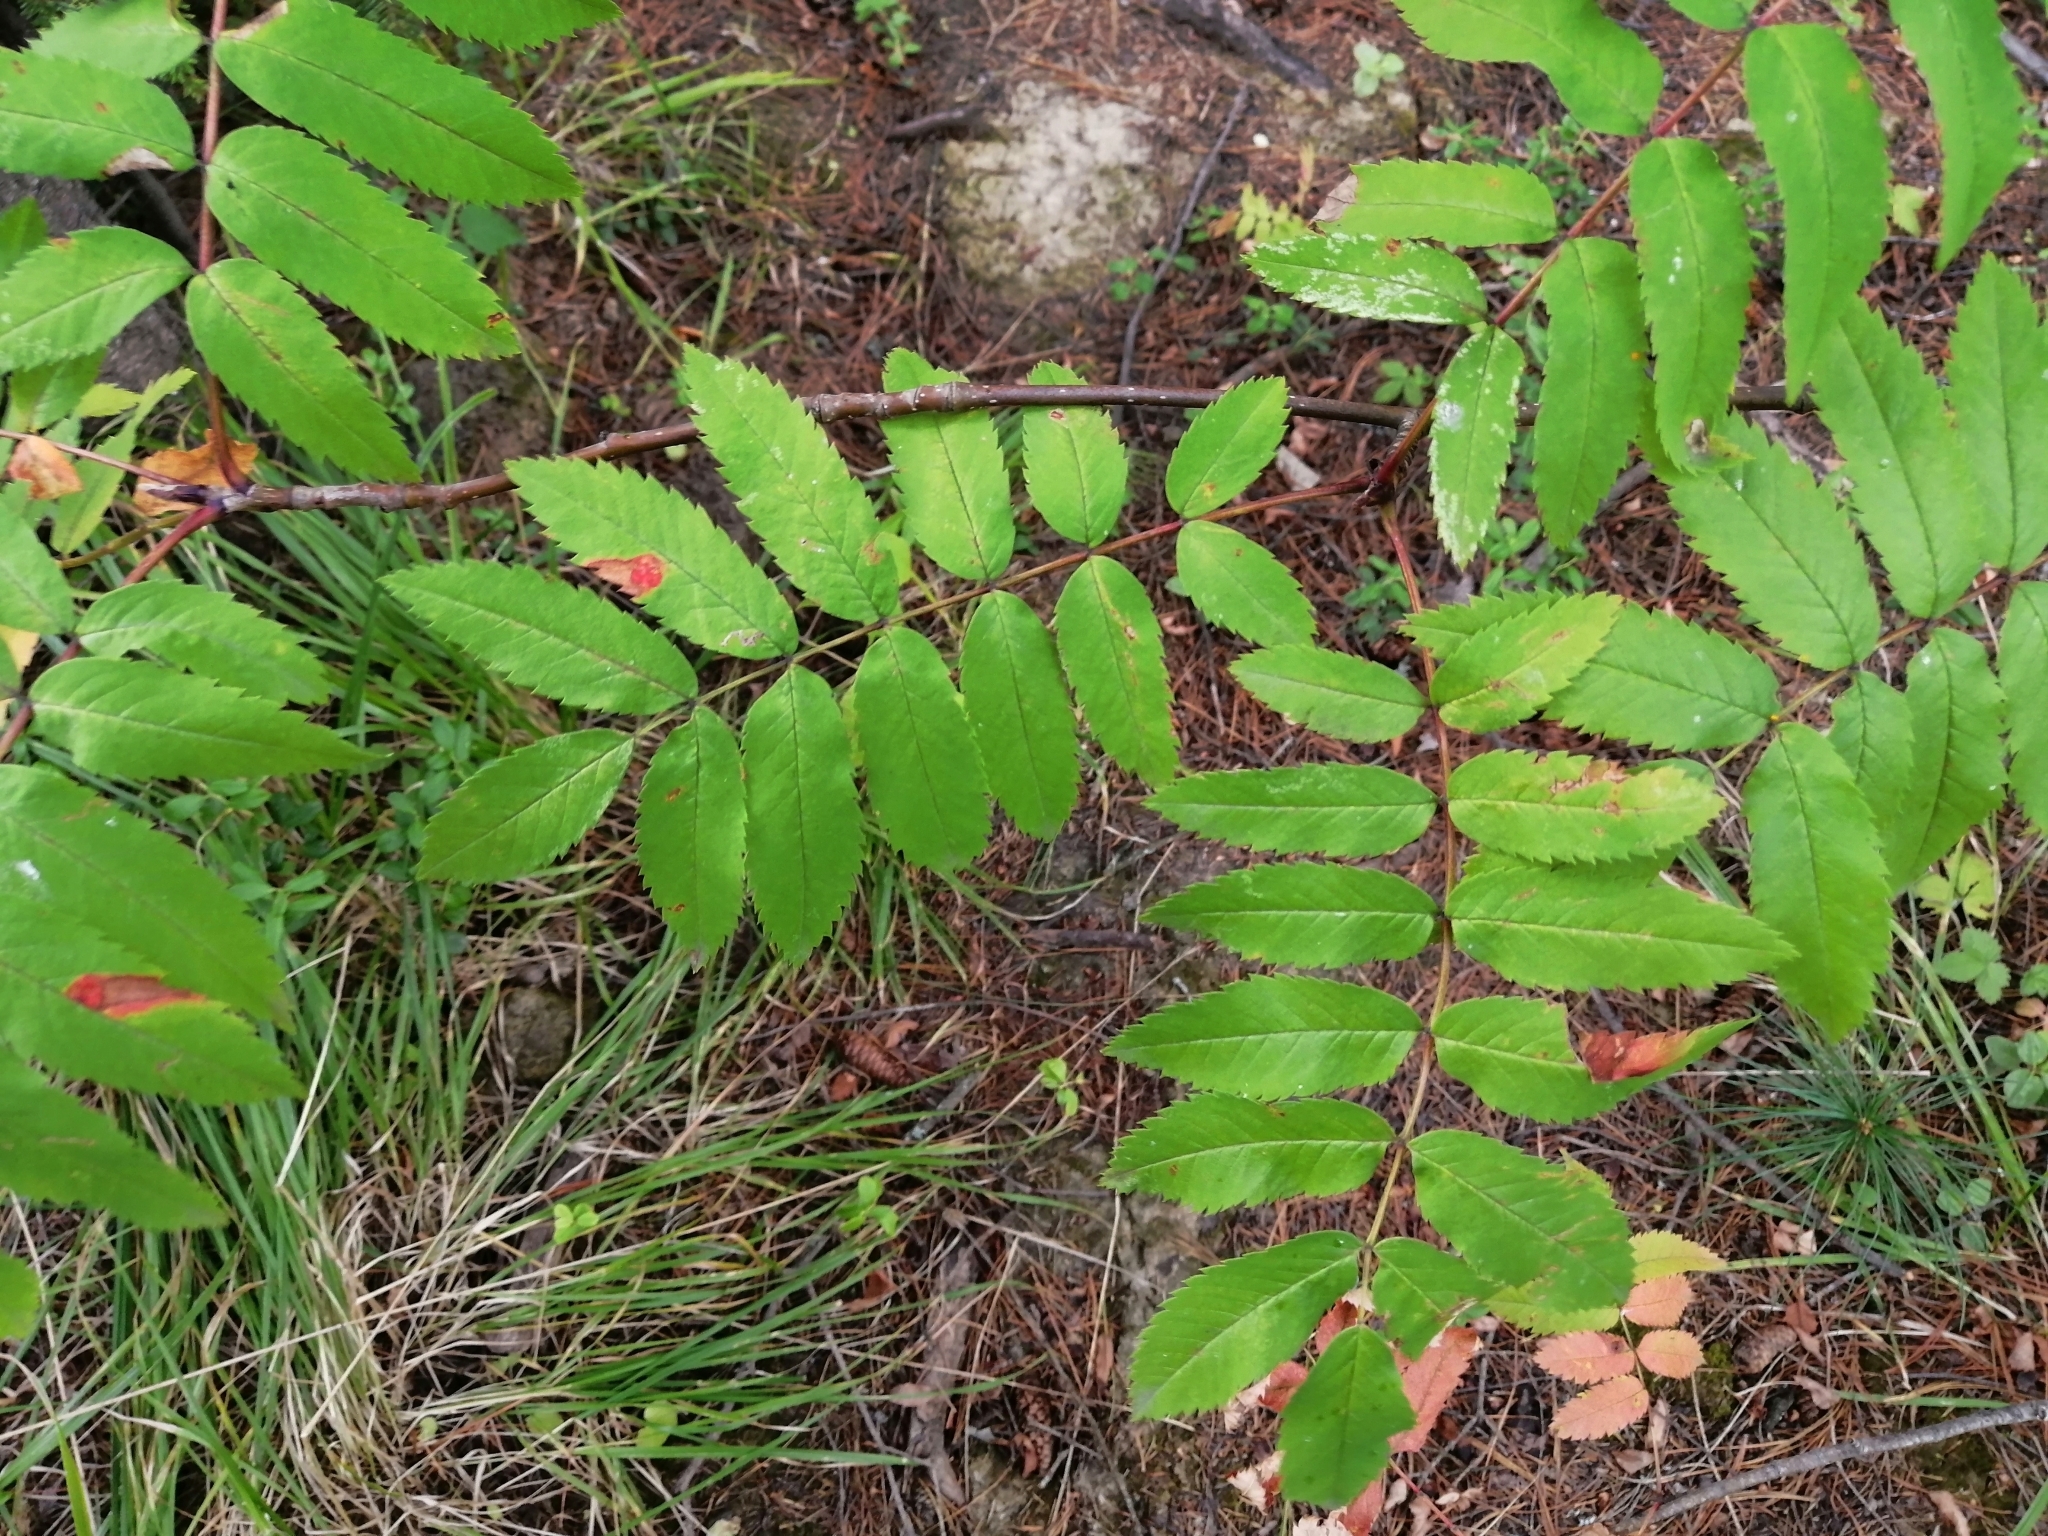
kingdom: Plantae
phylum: Tracheophyta
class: Magnoliopsida
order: Rosales
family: Rosaceae
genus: Sorbus
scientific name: Sorbus aucuparia
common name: Rowan
